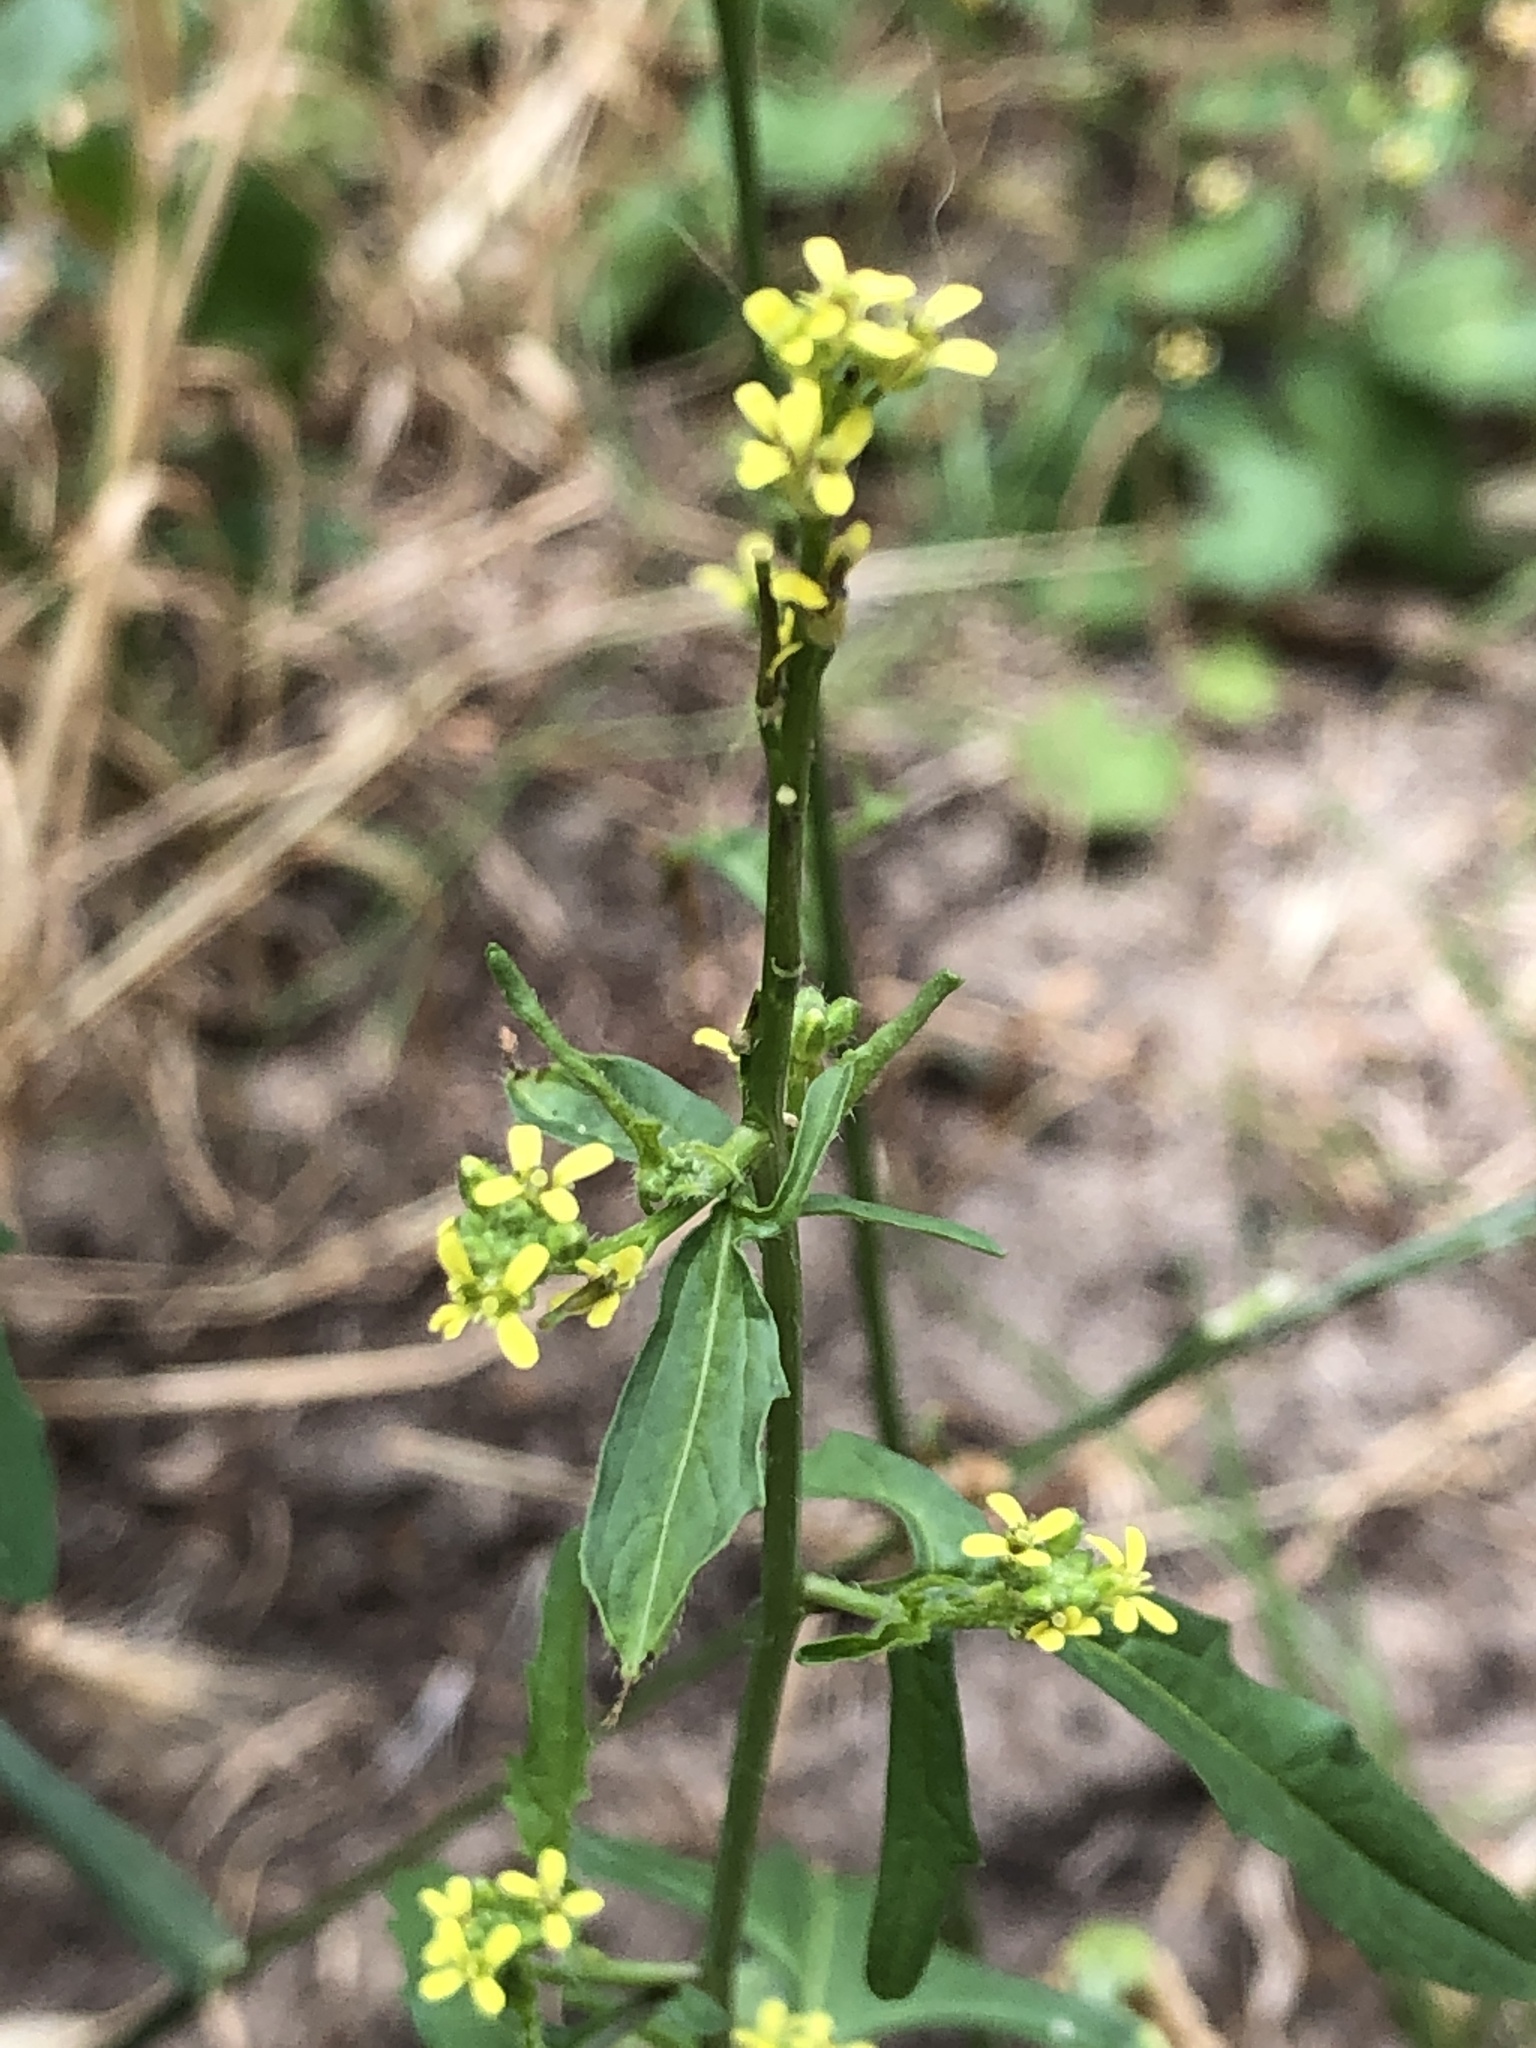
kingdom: Plantae
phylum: Tracheophyta
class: Magnoliopsida
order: Brassicales
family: Brassicaceae
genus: Sisymbrium
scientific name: Sisymbrium officinale
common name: Hedge mustard
